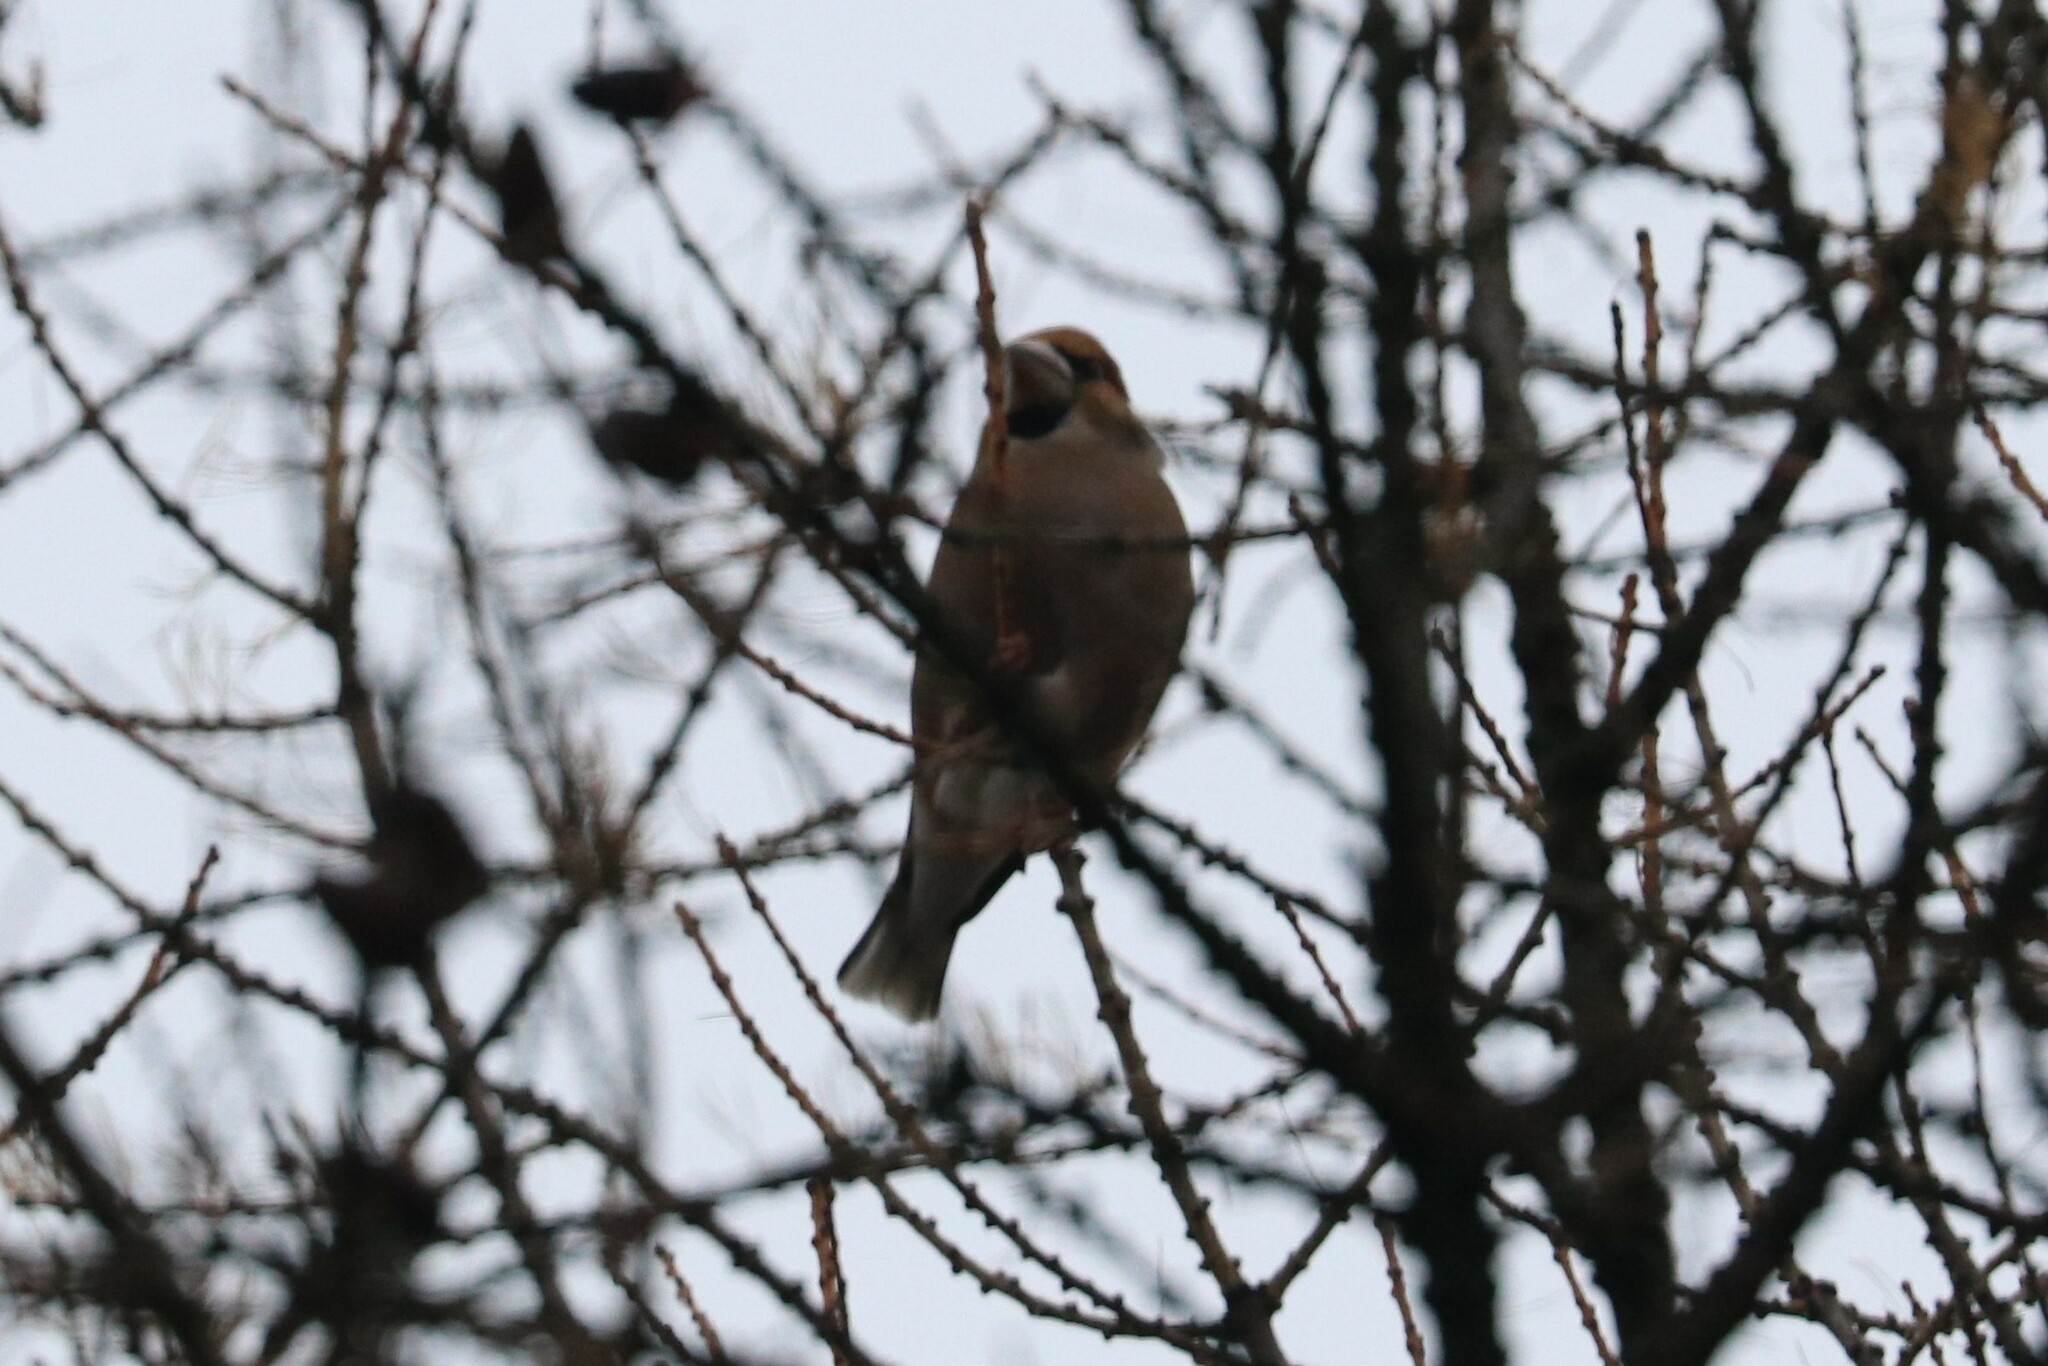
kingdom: Animalia
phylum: Chordata
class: Aves
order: Passeriformes
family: Fringillidae
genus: Coccothraustes
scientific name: Coccothraustes coccothraustes
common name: Hawfinch
